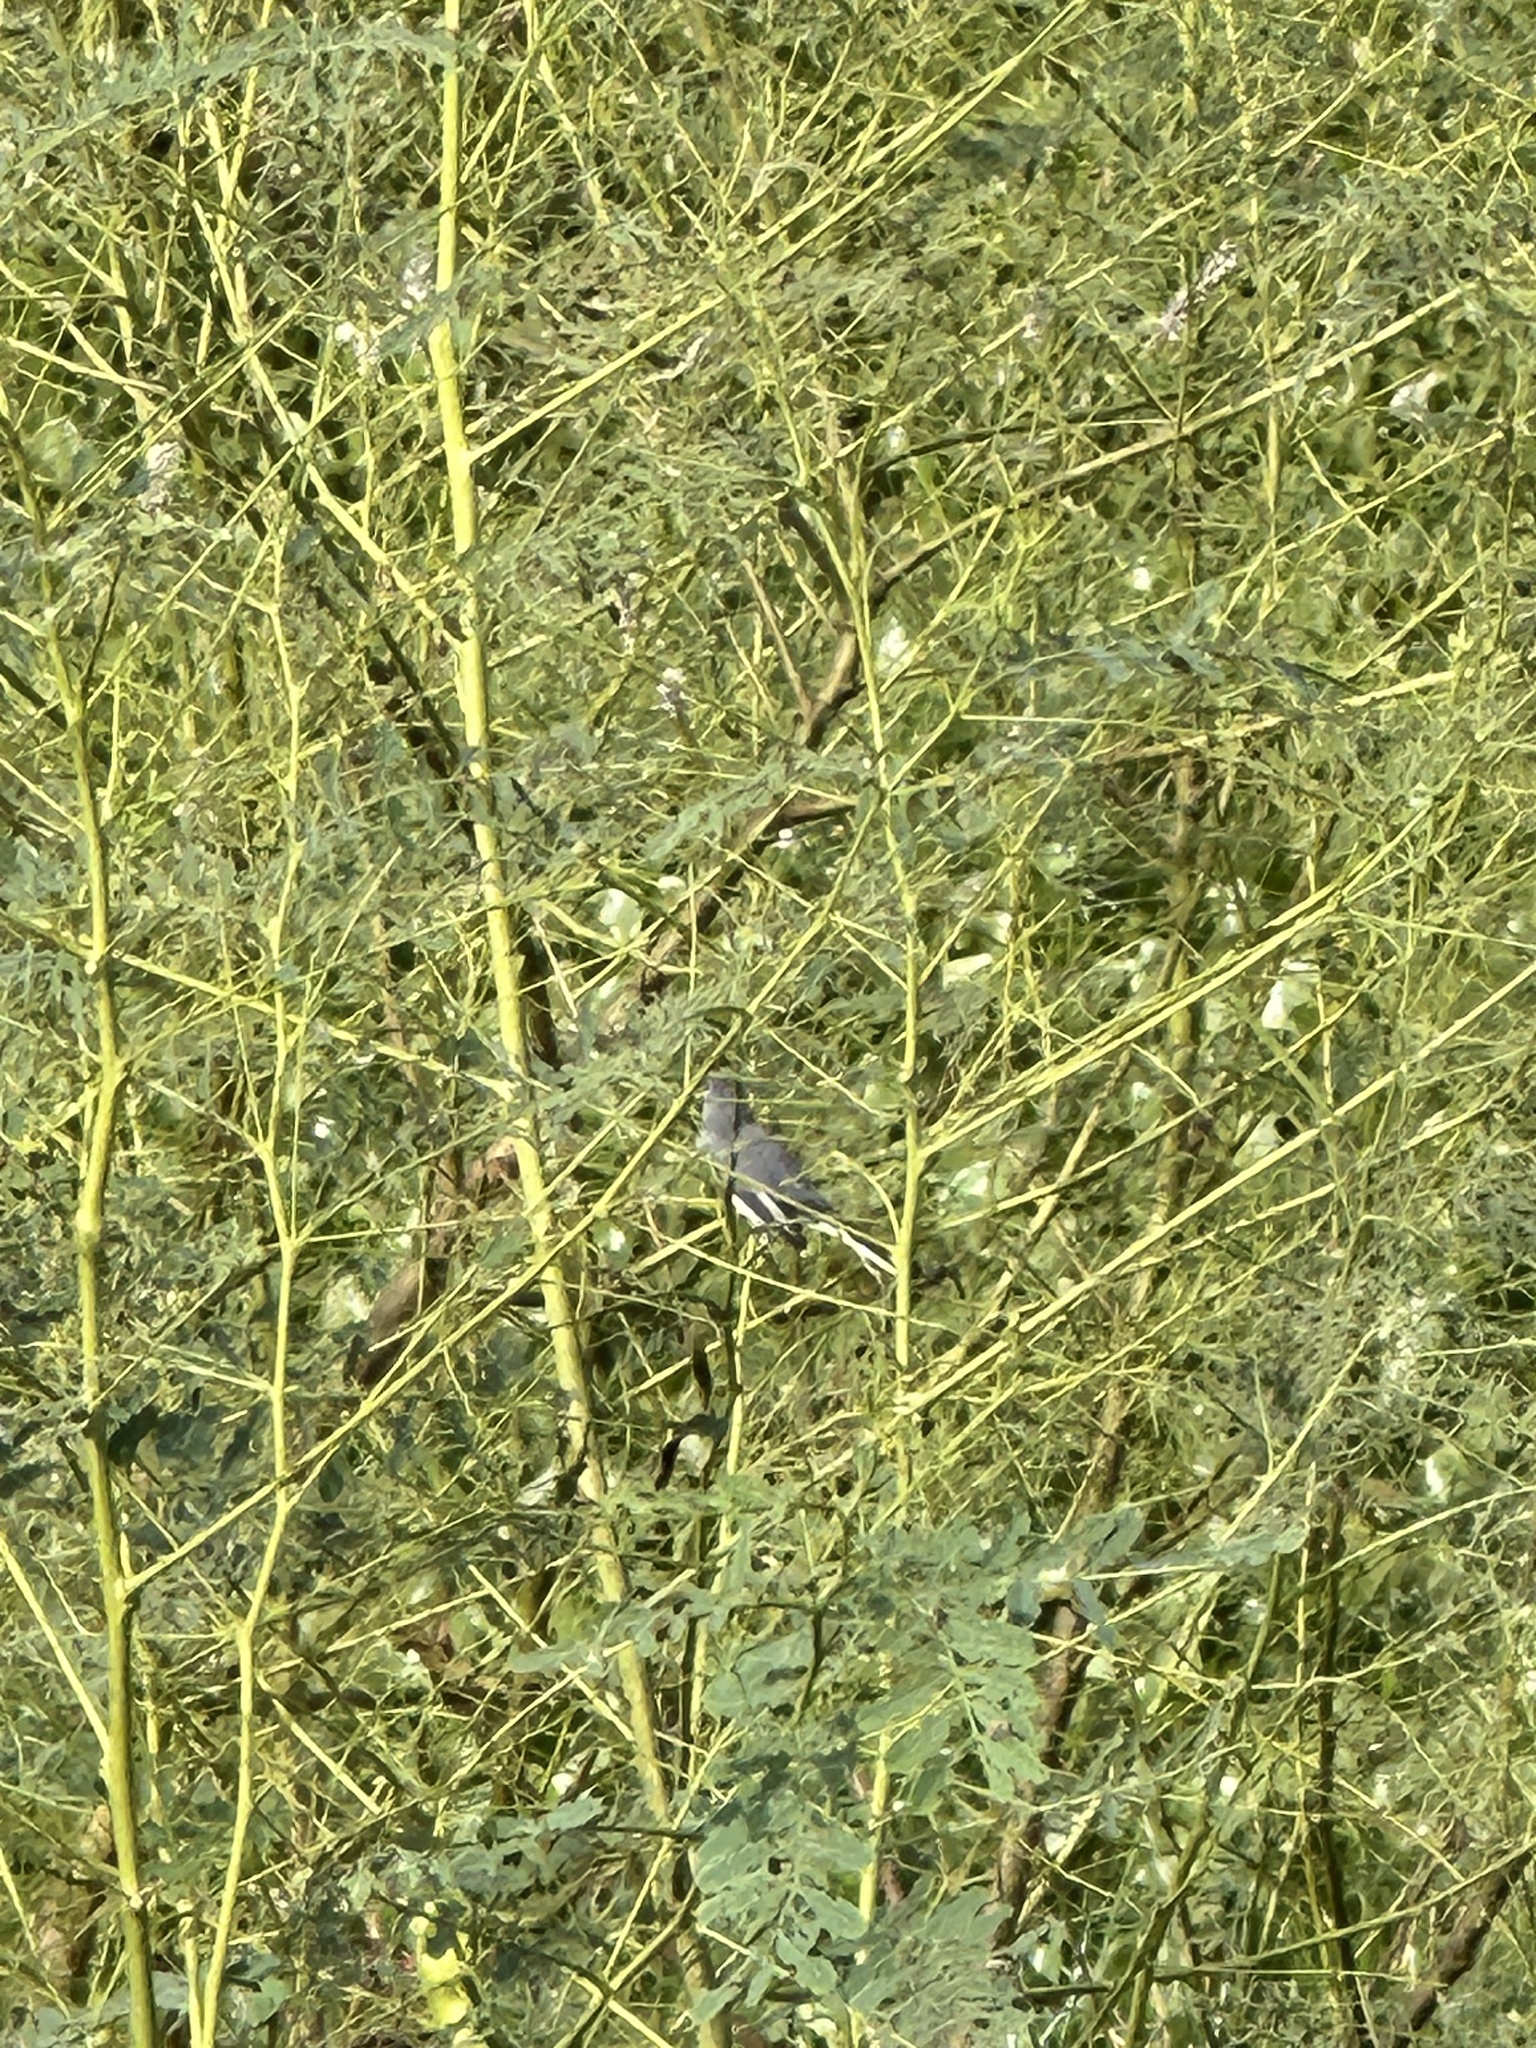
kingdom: Animalia
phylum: Chordata
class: Aves
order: Passeriformes
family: Polioptilidae
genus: Polioptila
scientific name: Polioptila caerulea
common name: Blue-gray gnatcatcher
